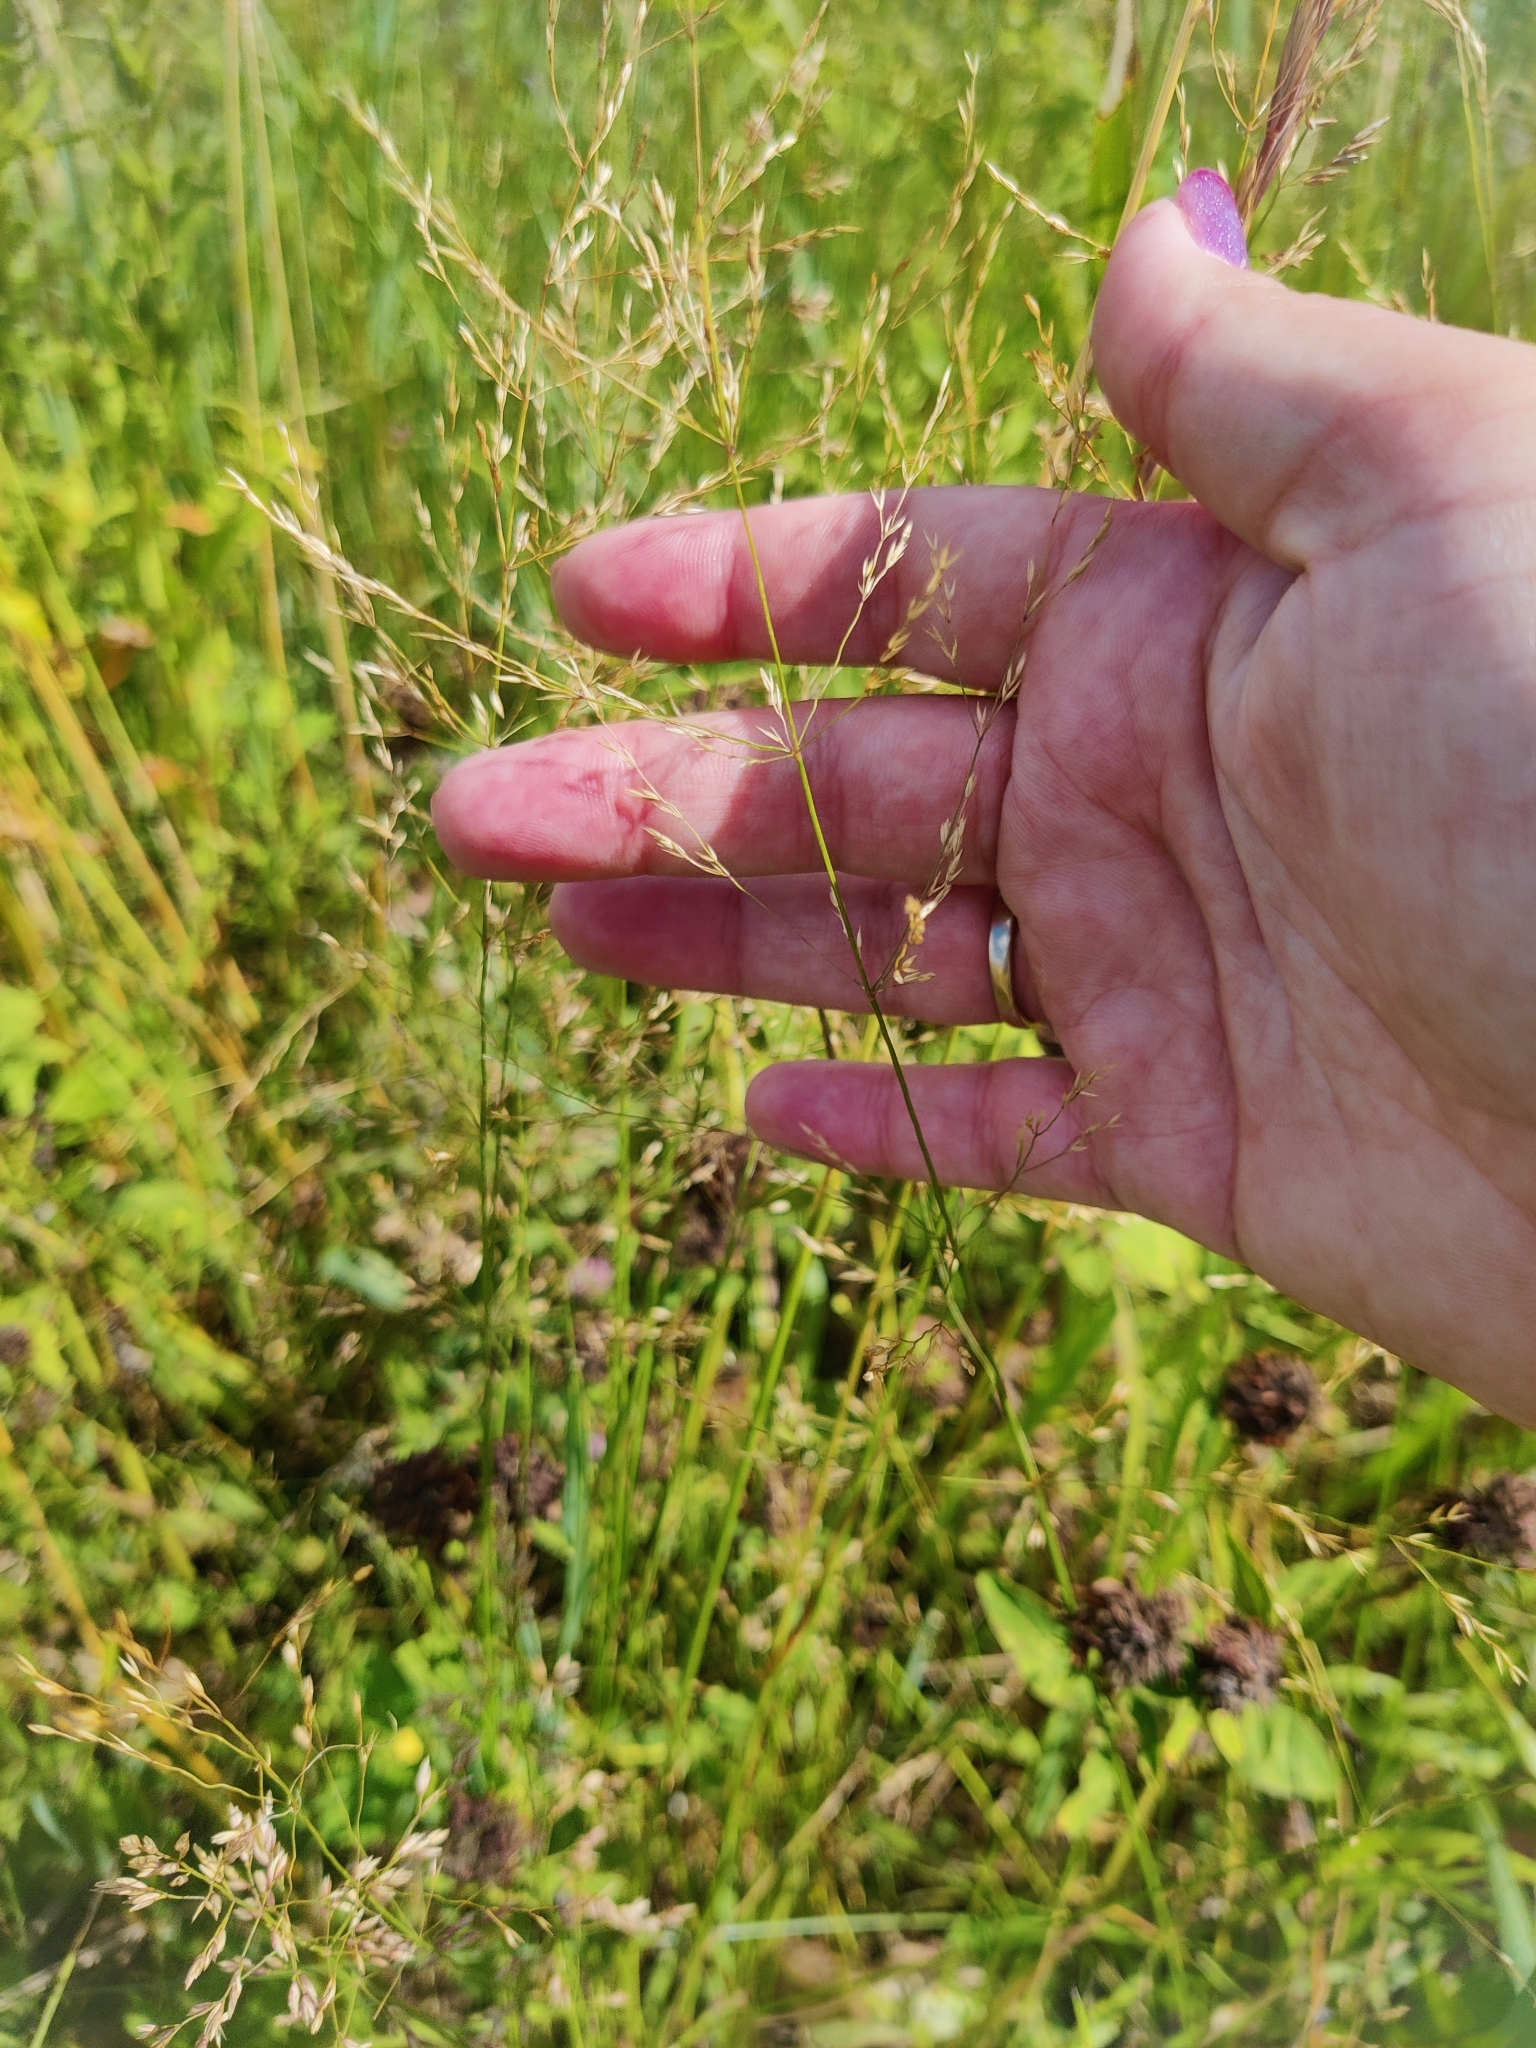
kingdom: Plantae
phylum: Tracheophyta
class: Liliopsida
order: Poales
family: Poaceae
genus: Poa
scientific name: Poa palustris
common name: Swamp meadow-grass
